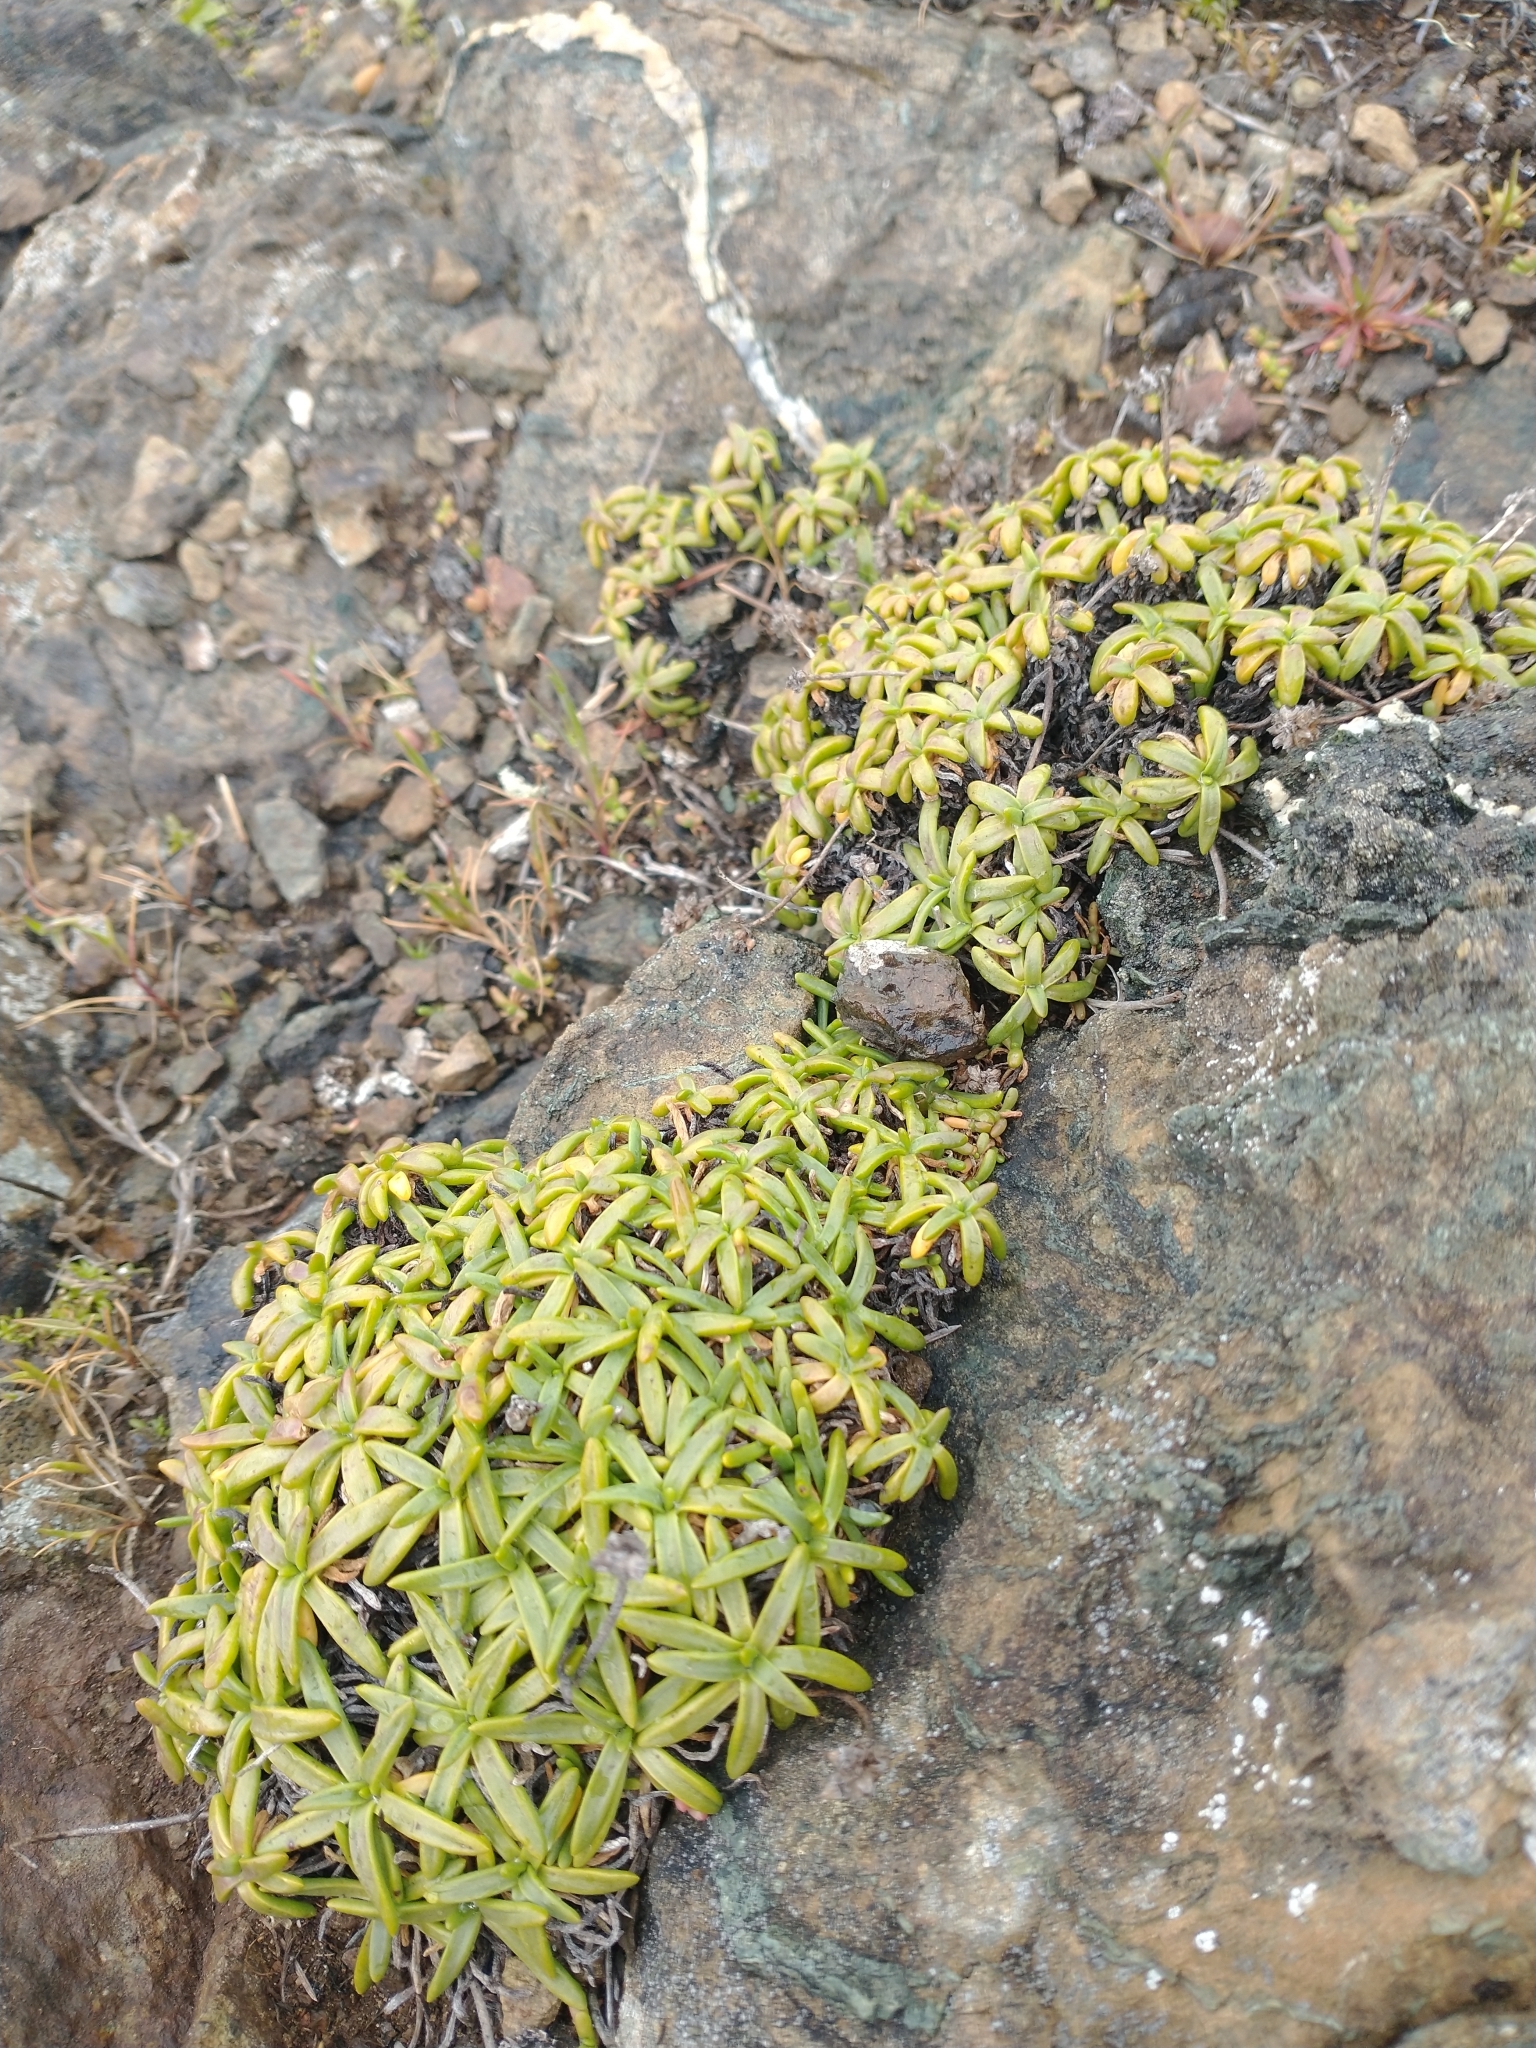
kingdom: Plantae
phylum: Tracheophyta
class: Magnoliopsida
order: Lamiales
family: Plantaginaceae
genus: Plantago
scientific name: Plantago maritima
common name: Sea plantain
